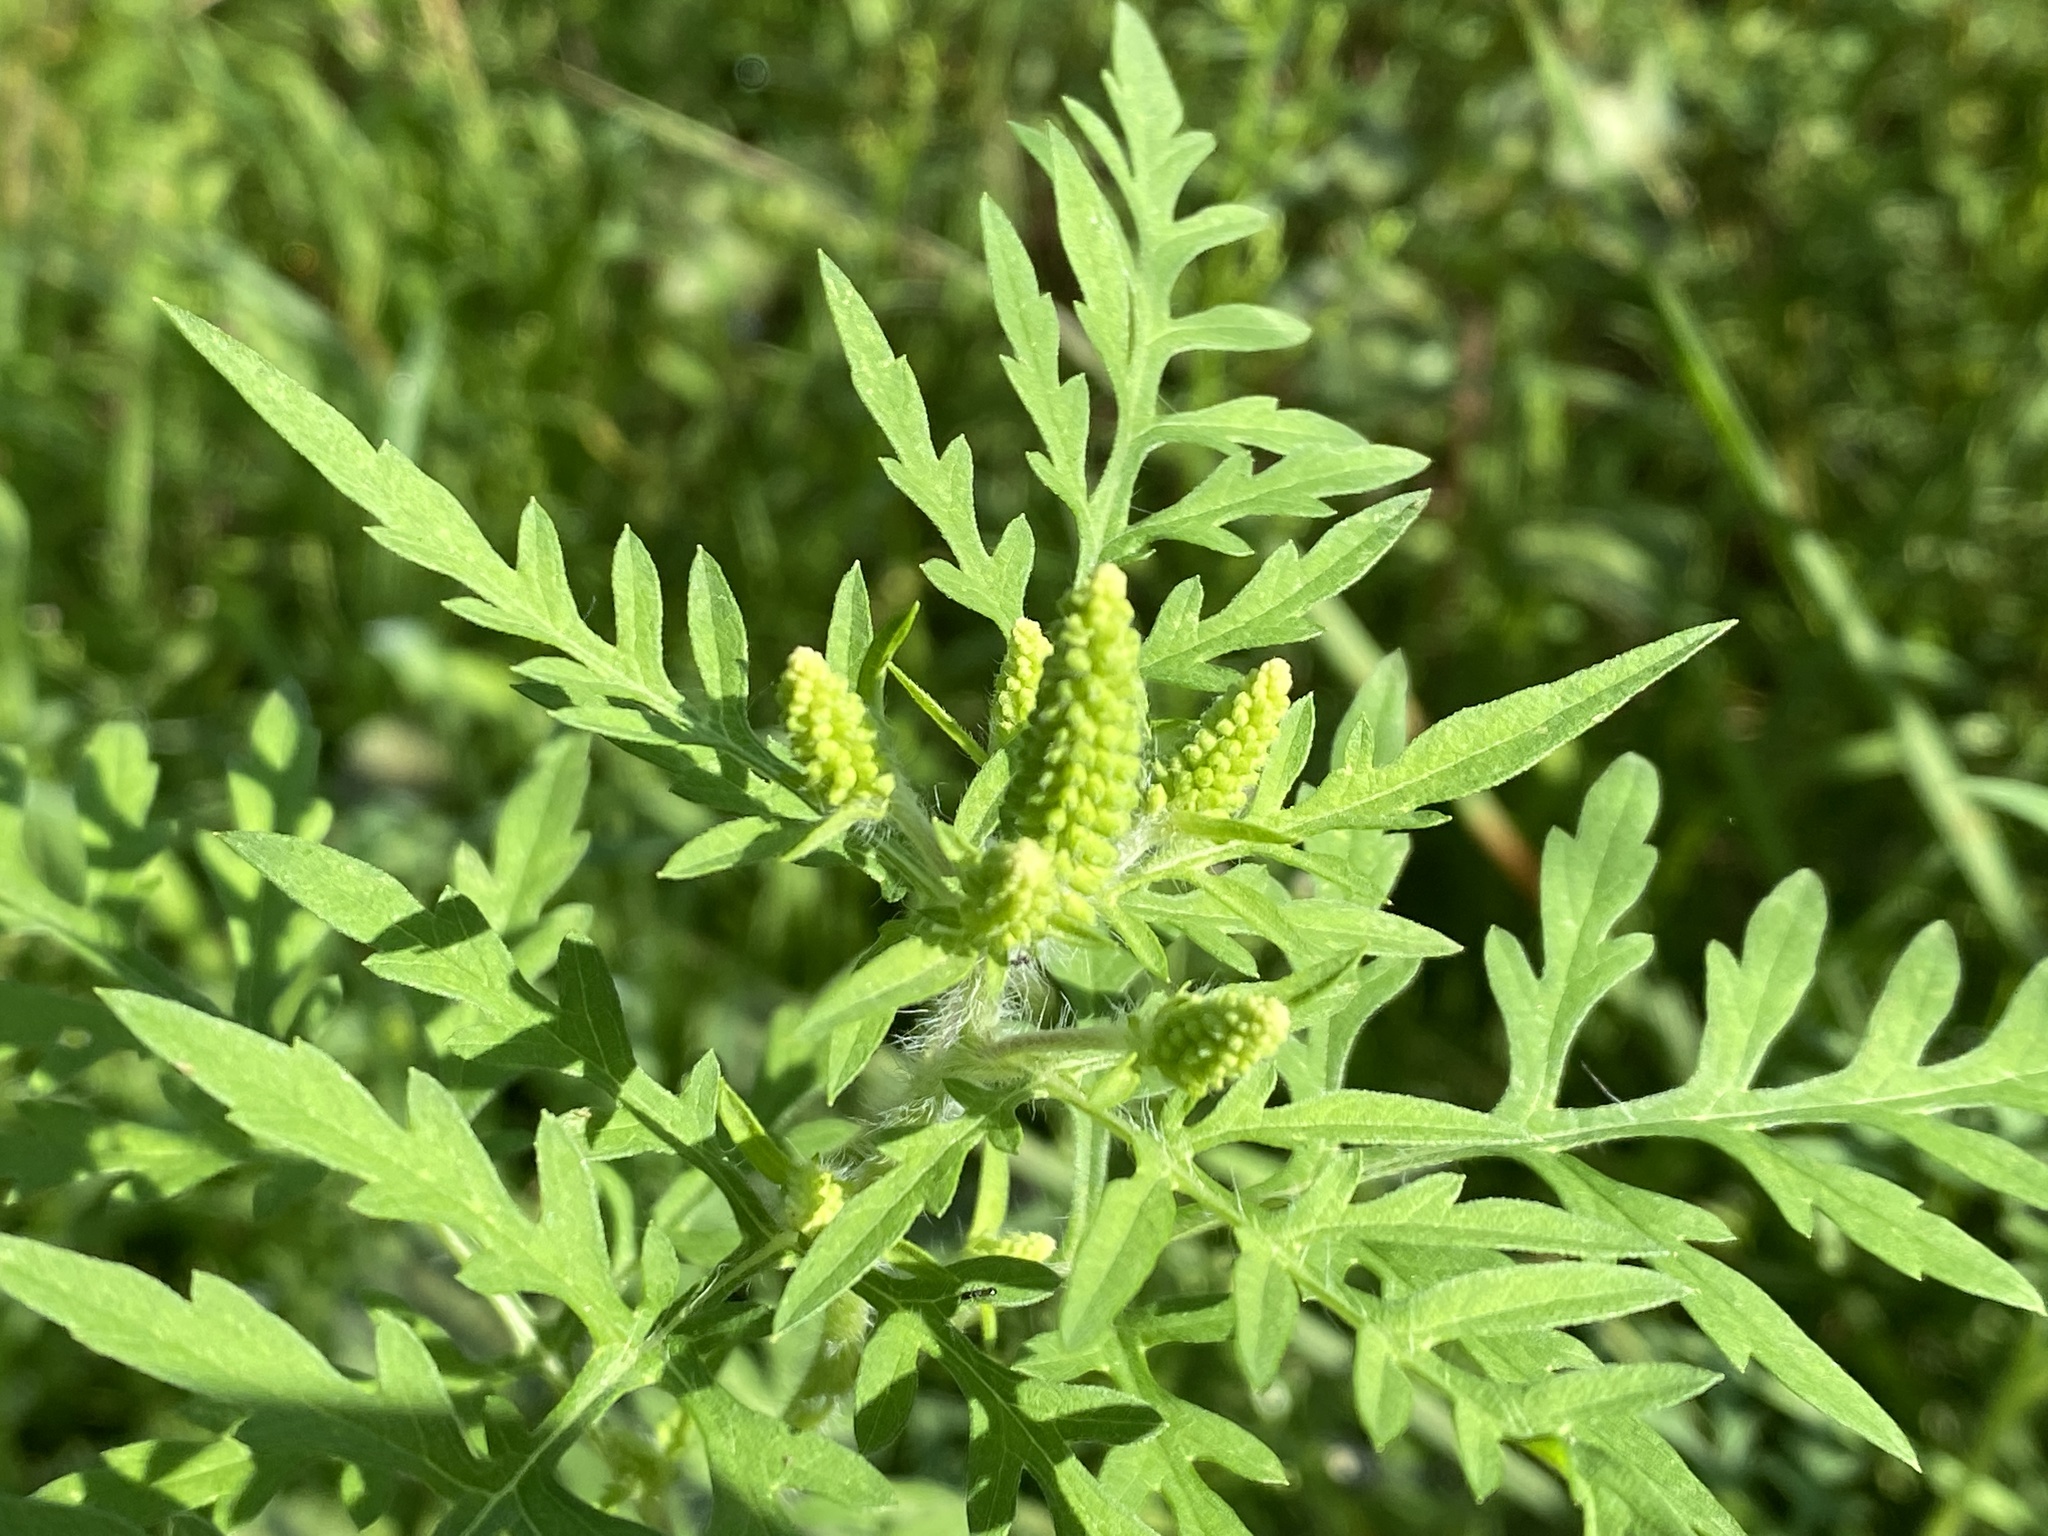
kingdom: Plantae
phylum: Tracheophyta
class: Magnoliopsida
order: Asterales
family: Asteraceae
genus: Ambrosia
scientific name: Ambrosia artemisiifolia
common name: Annual ragweed
